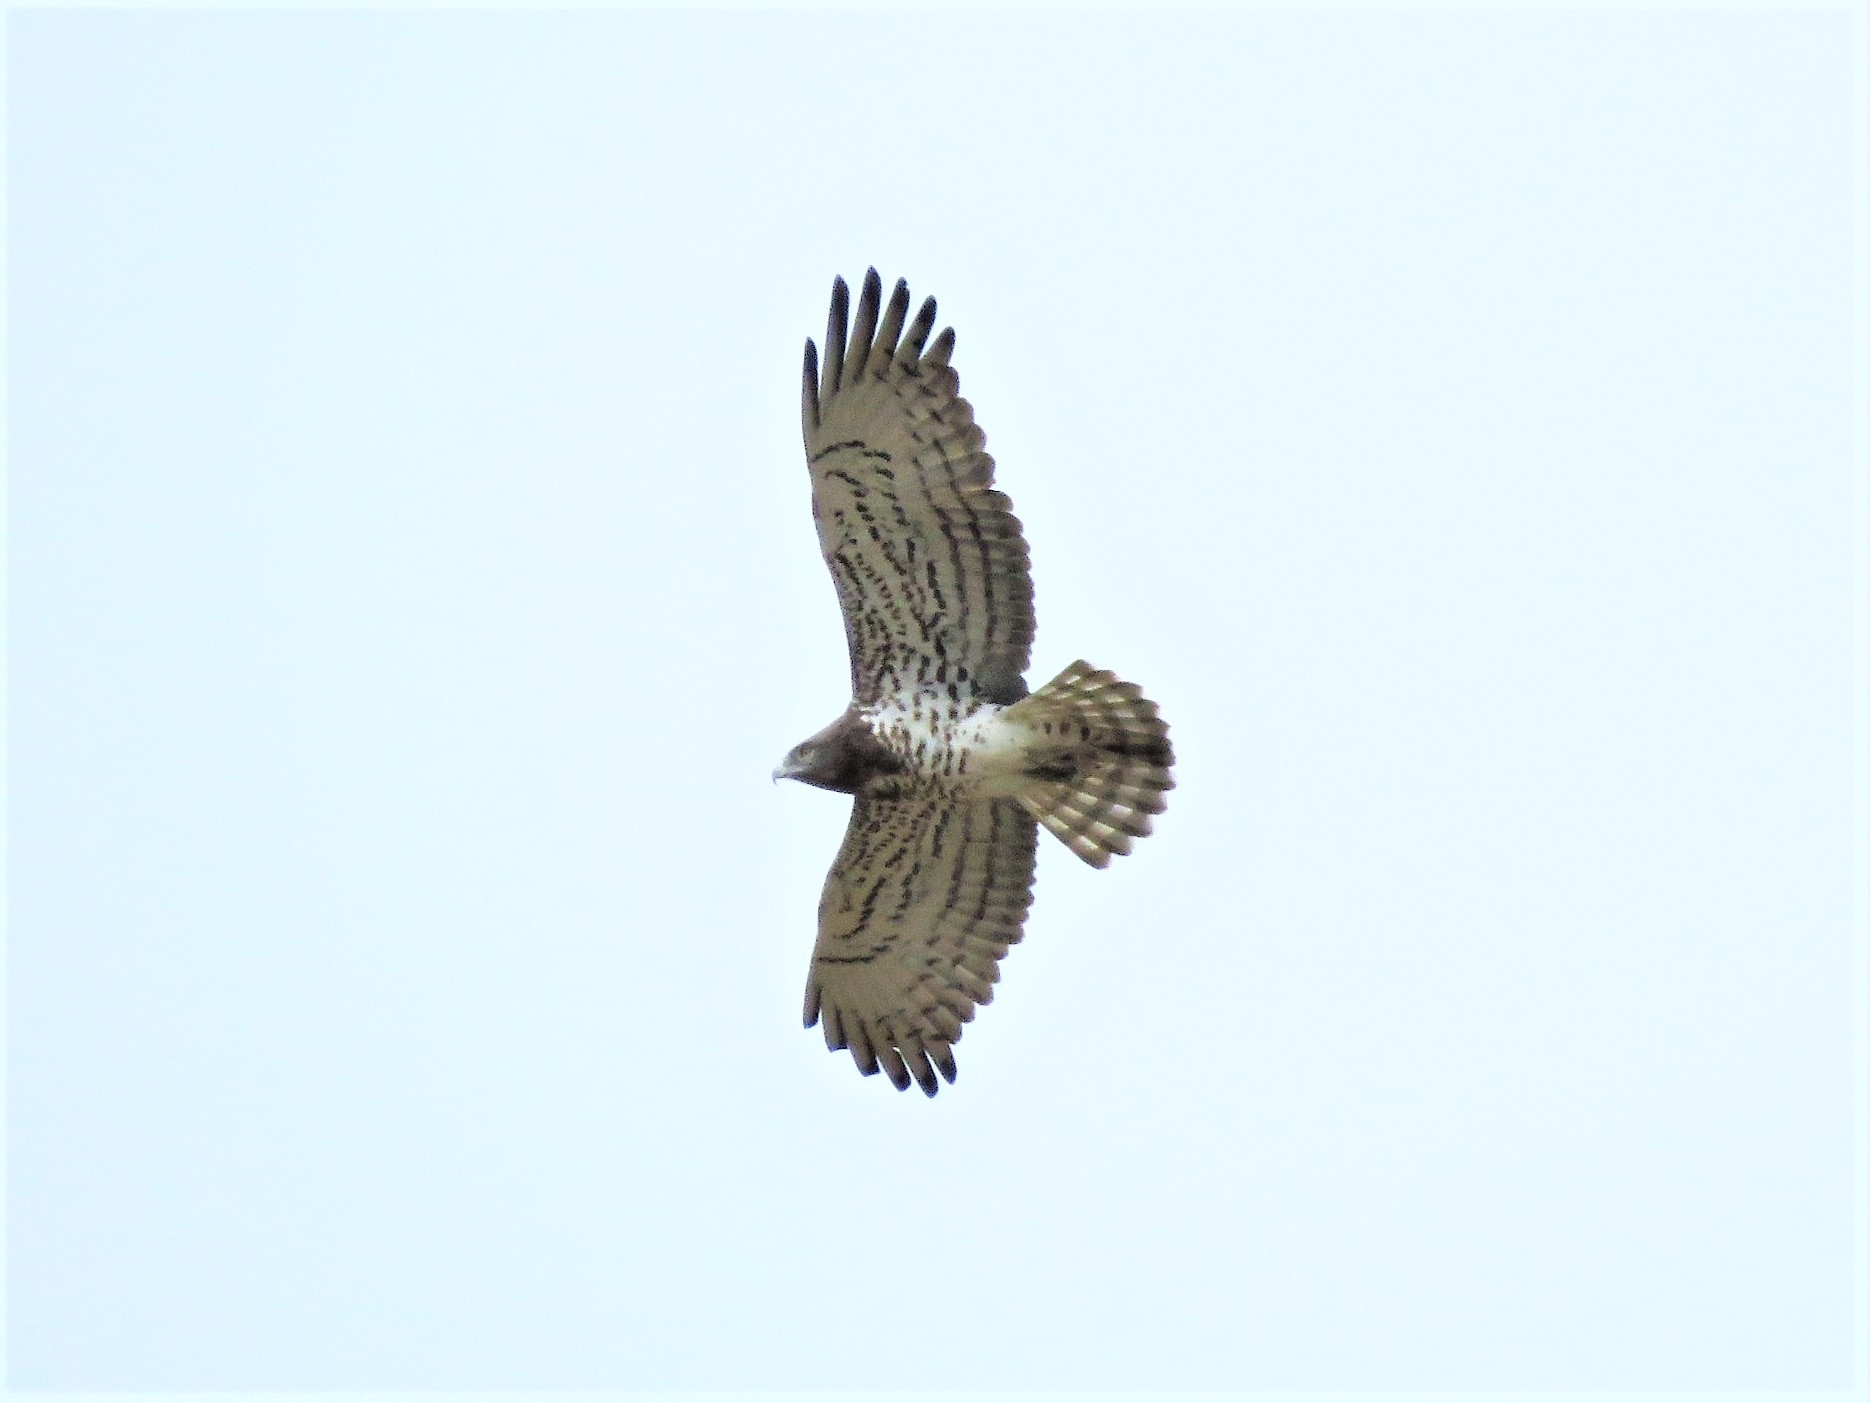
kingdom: Animalia
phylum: Chordata
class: Aves
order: Accipitriformes
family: Accipitridae
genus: Circaetus
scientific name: Circaetus gallicus
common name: Short-toed snake eagle
